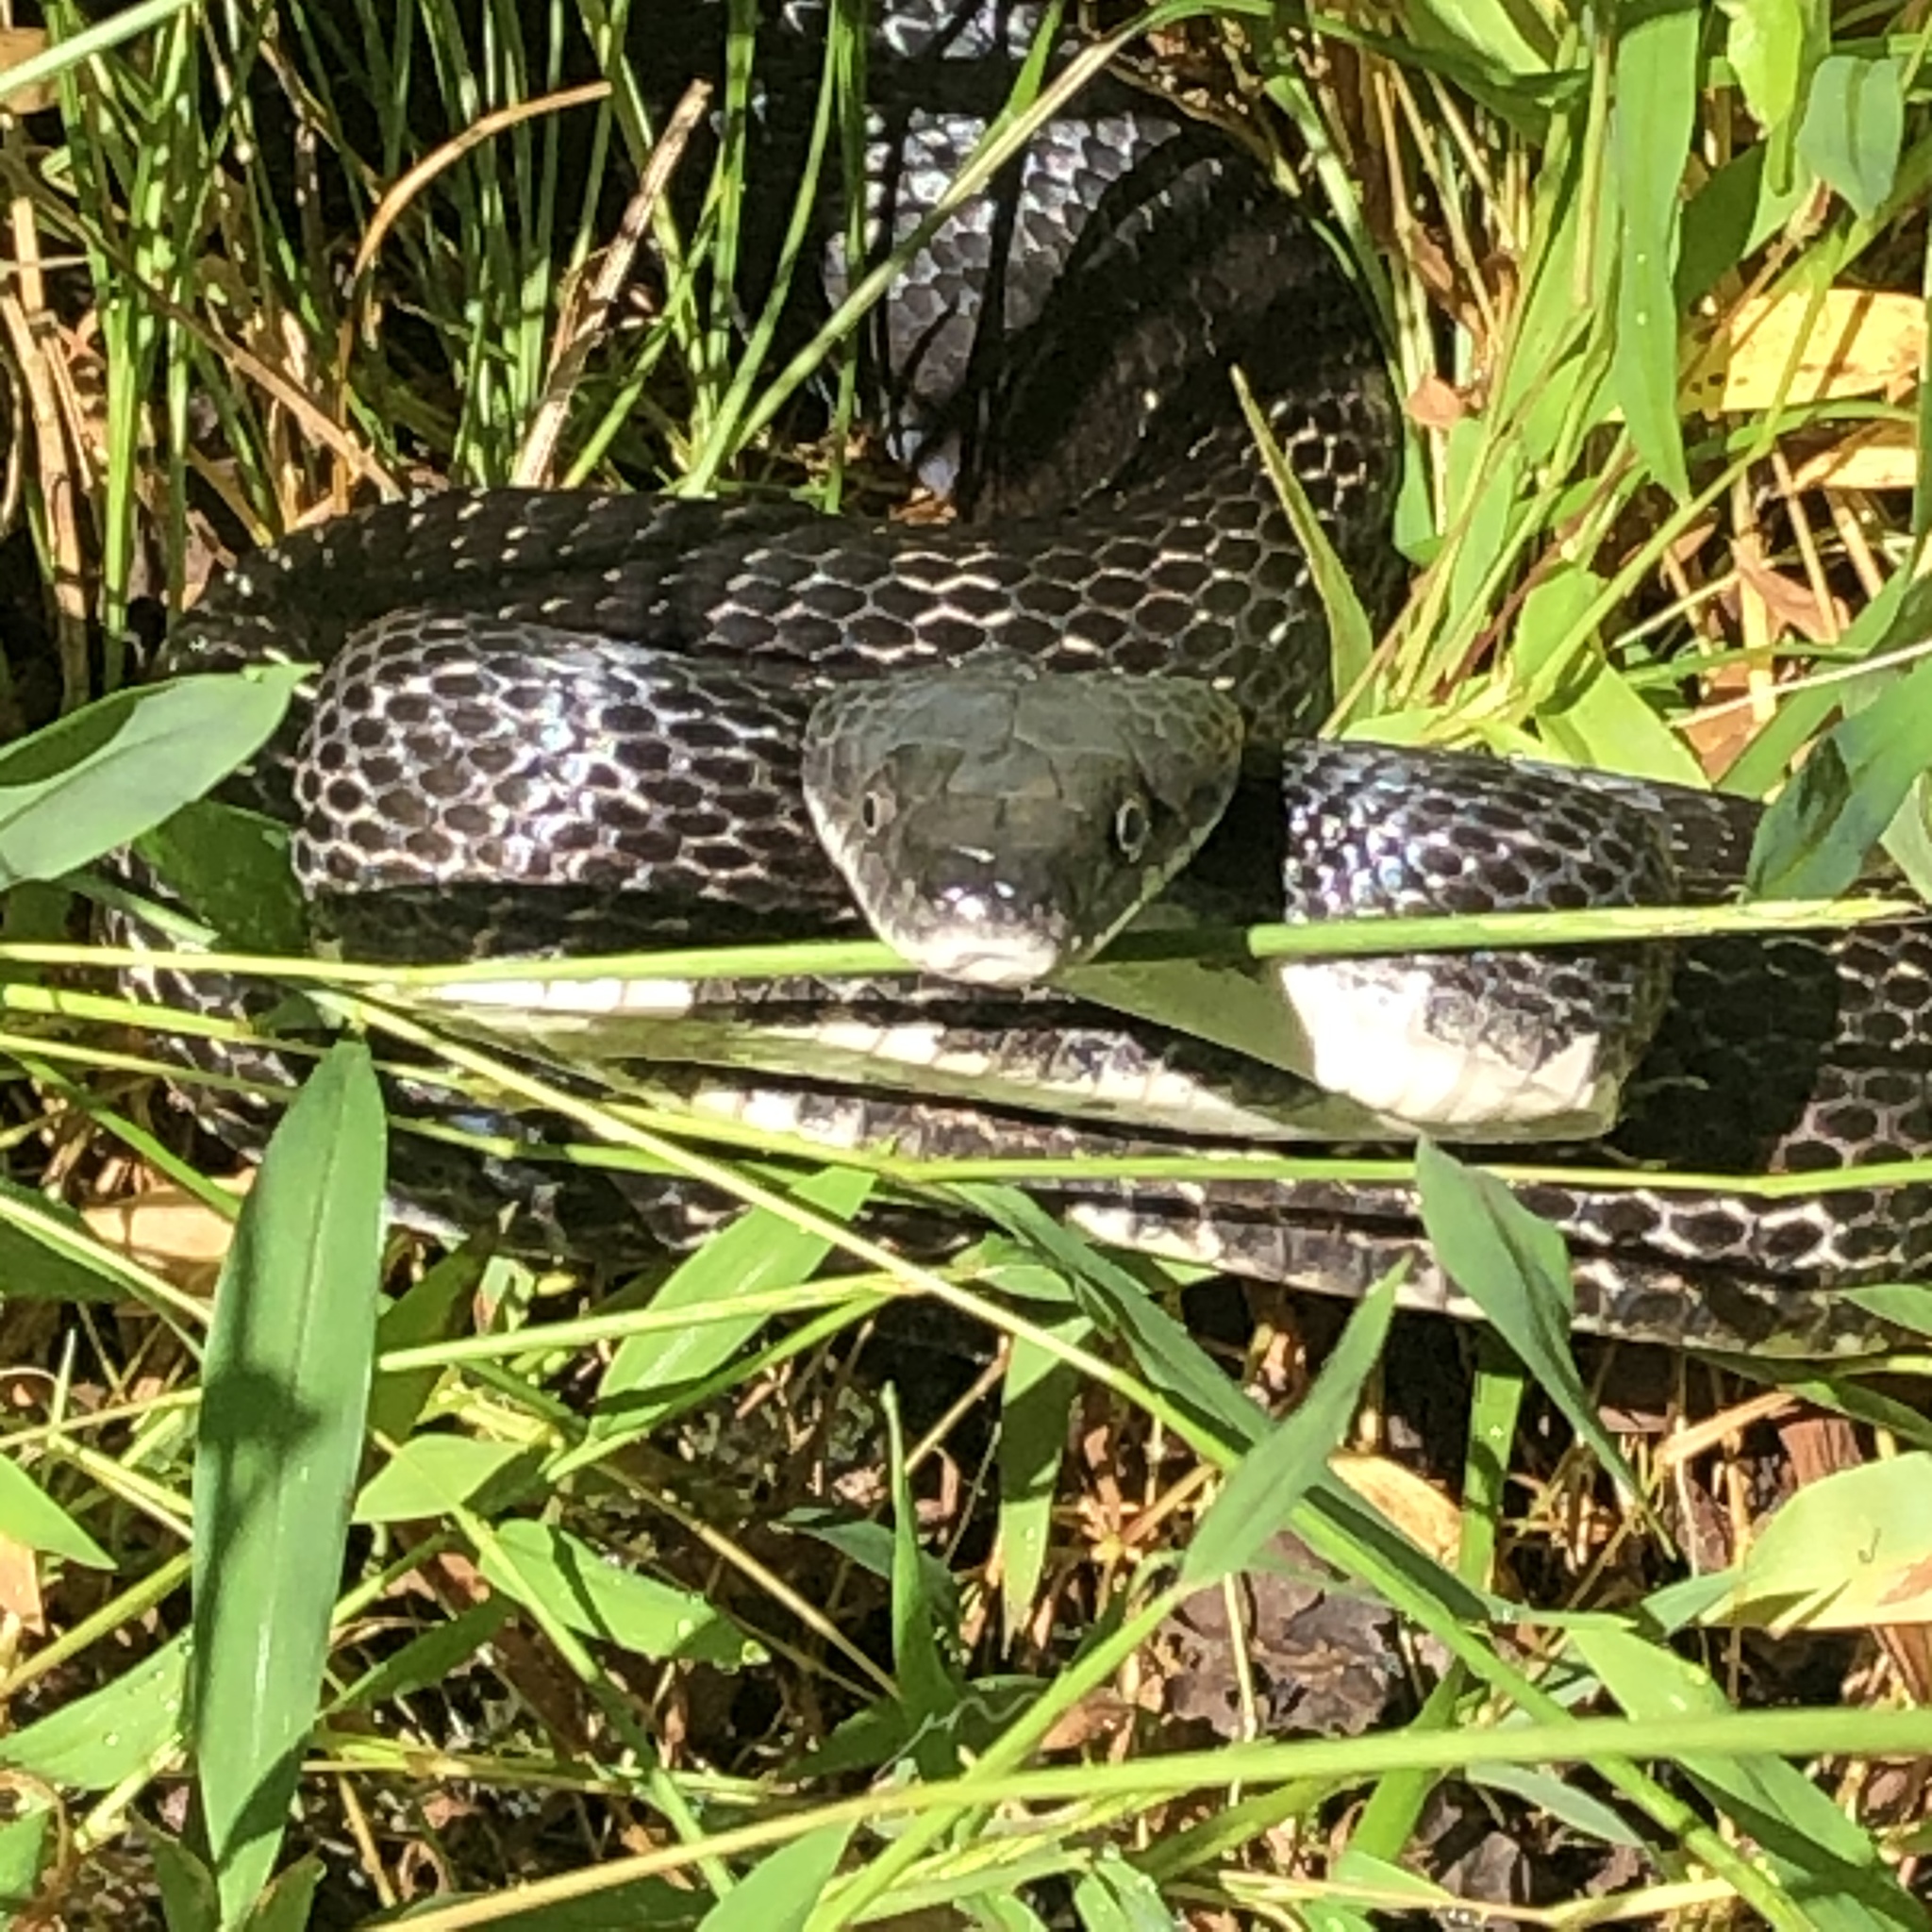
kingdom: Animalia
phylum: Chordata
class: Squamata
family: Colubridae
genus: Pantherophis
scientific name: Pantherophis alleghaniensis
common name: Eastern rat snake
